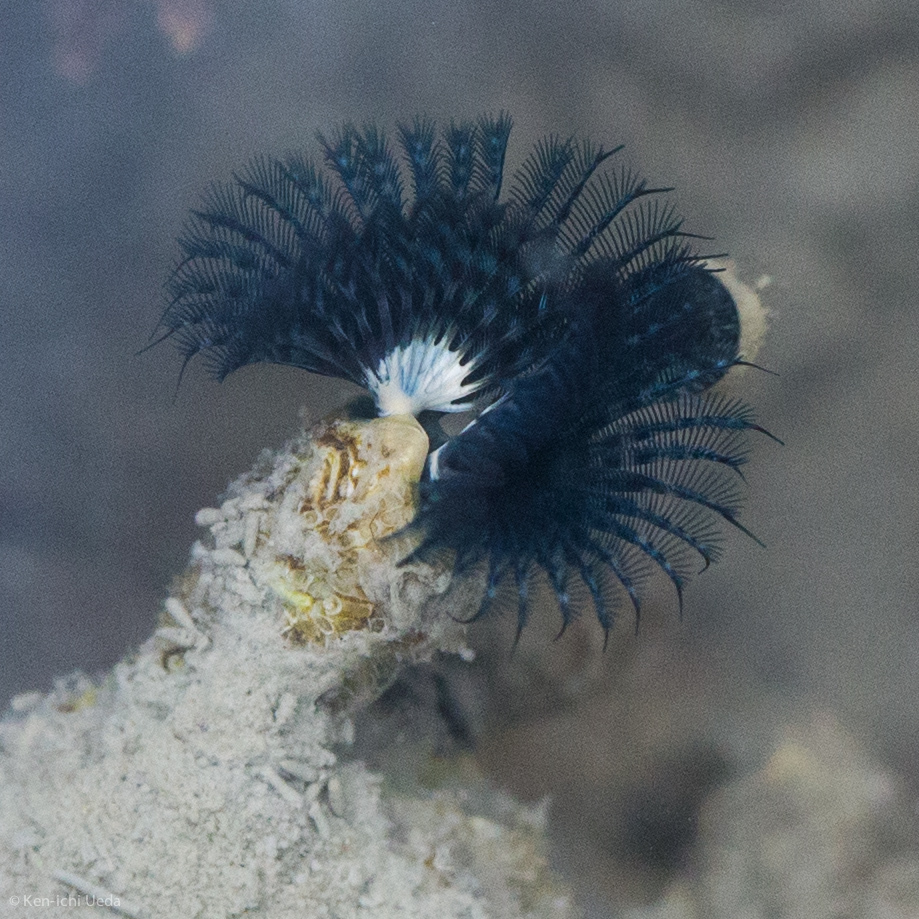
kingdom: Animalia
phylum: Annelida
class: Polychaeta
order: Sabellida
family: Serpulidae
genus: Spirobranchus
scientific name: Spirobranchus cariniferus
